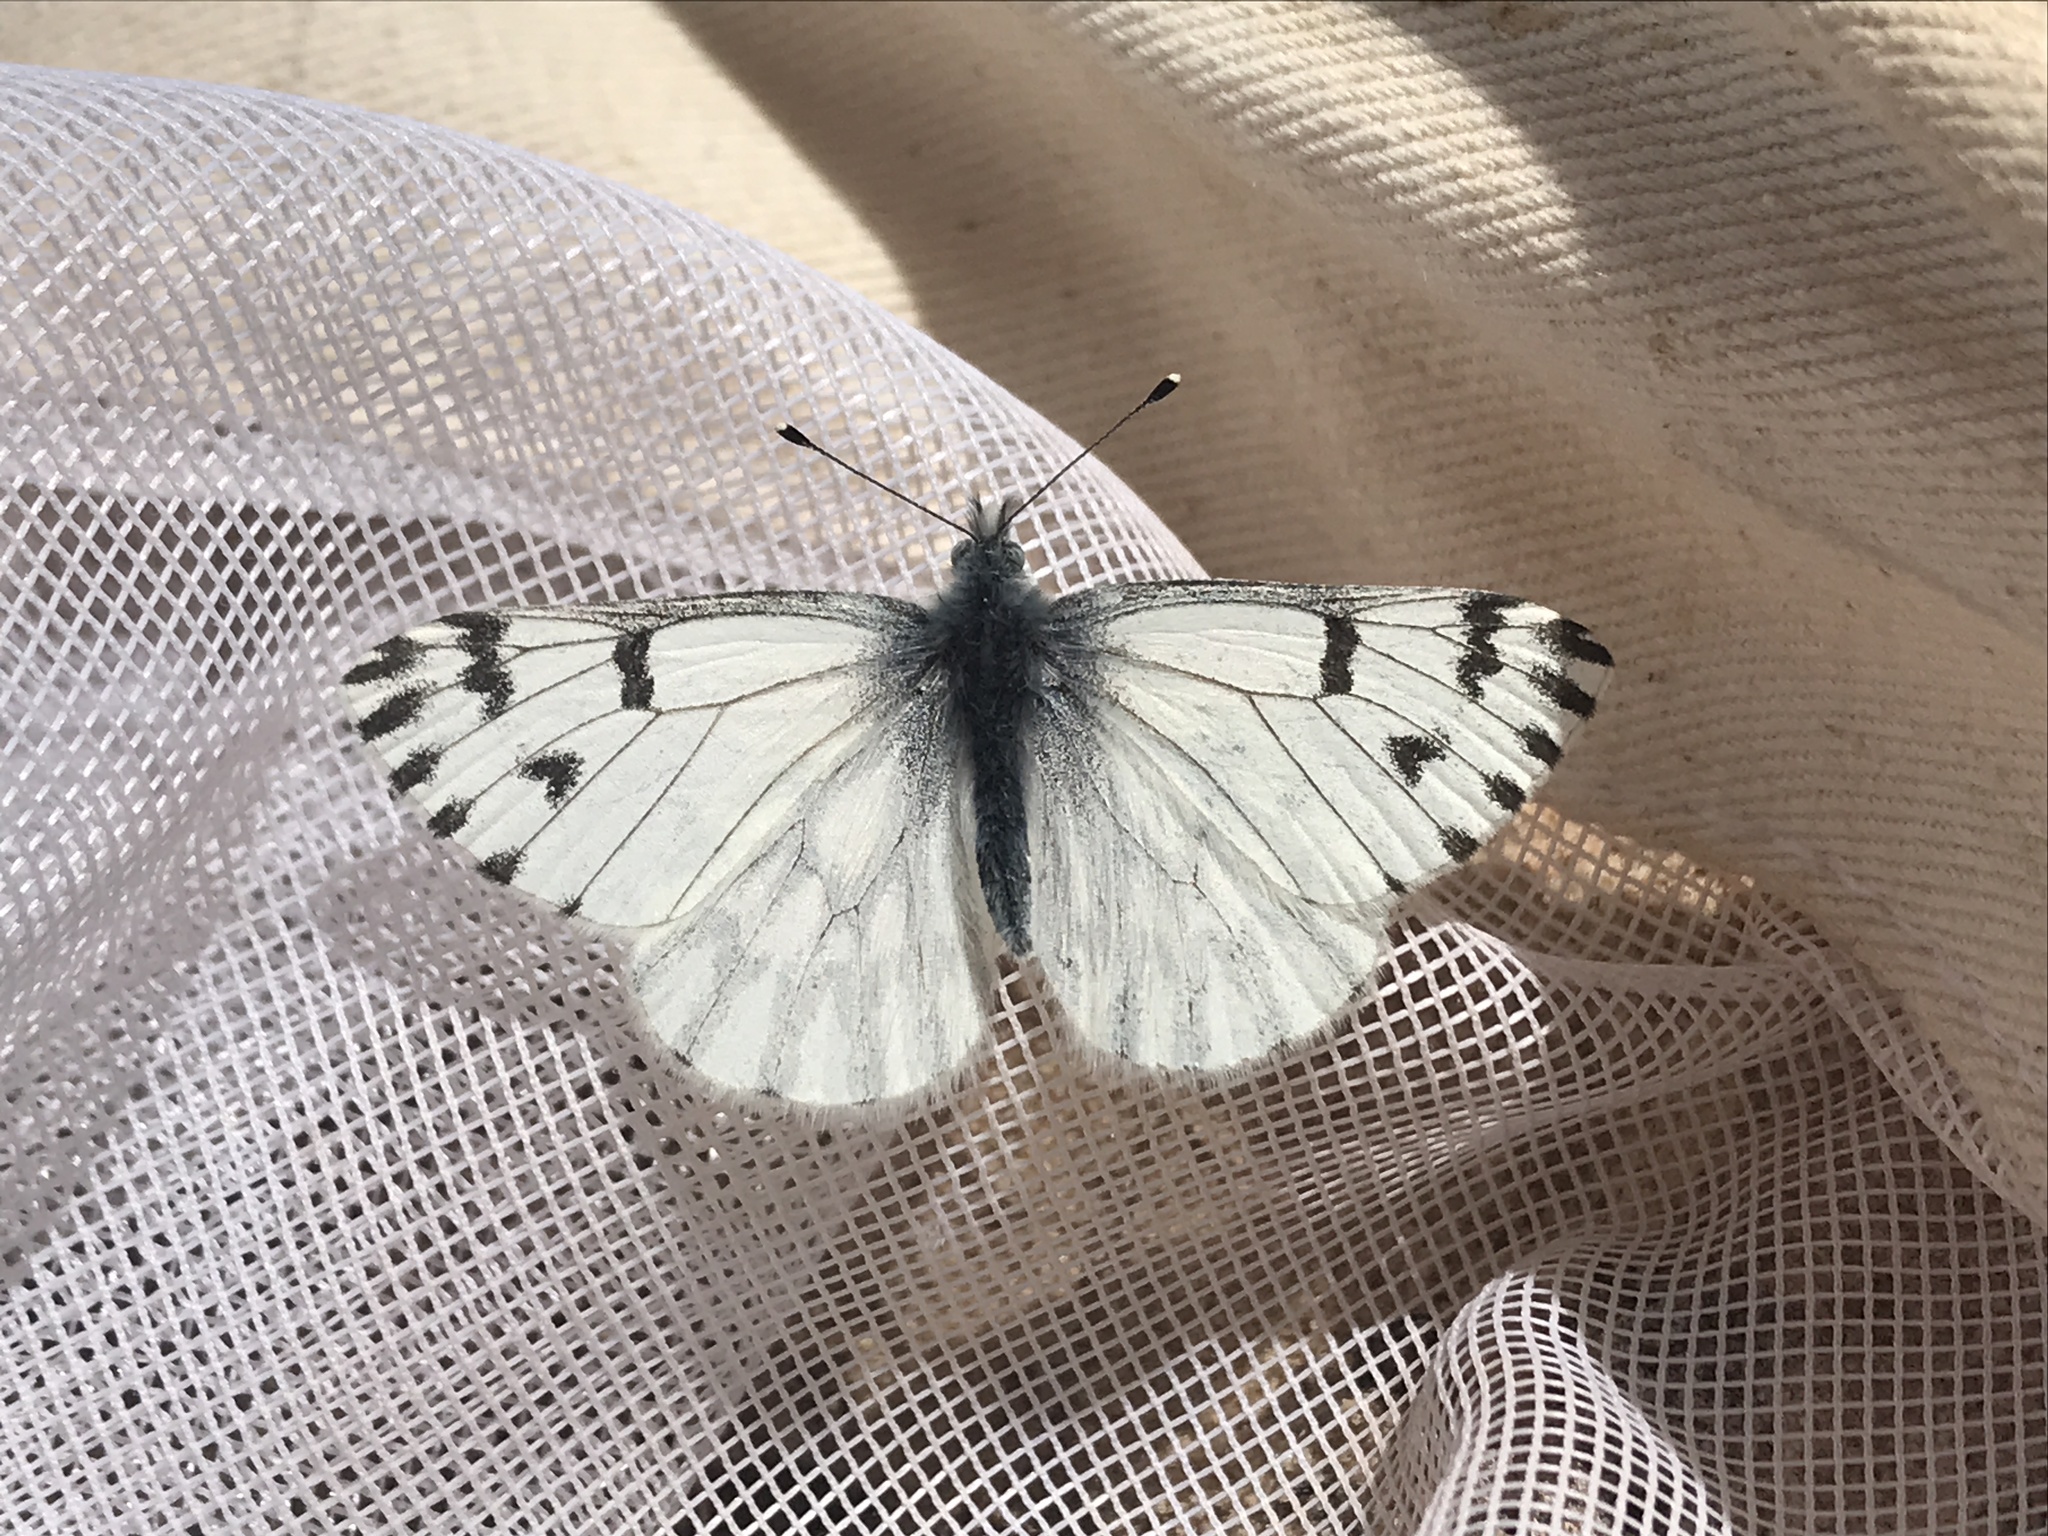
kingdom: Animalia
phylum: Arthropoda
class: Insecta
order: Lepidoptera
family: Pieridae
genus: Pontia
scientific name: Pontia sisymbrii
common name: California white
